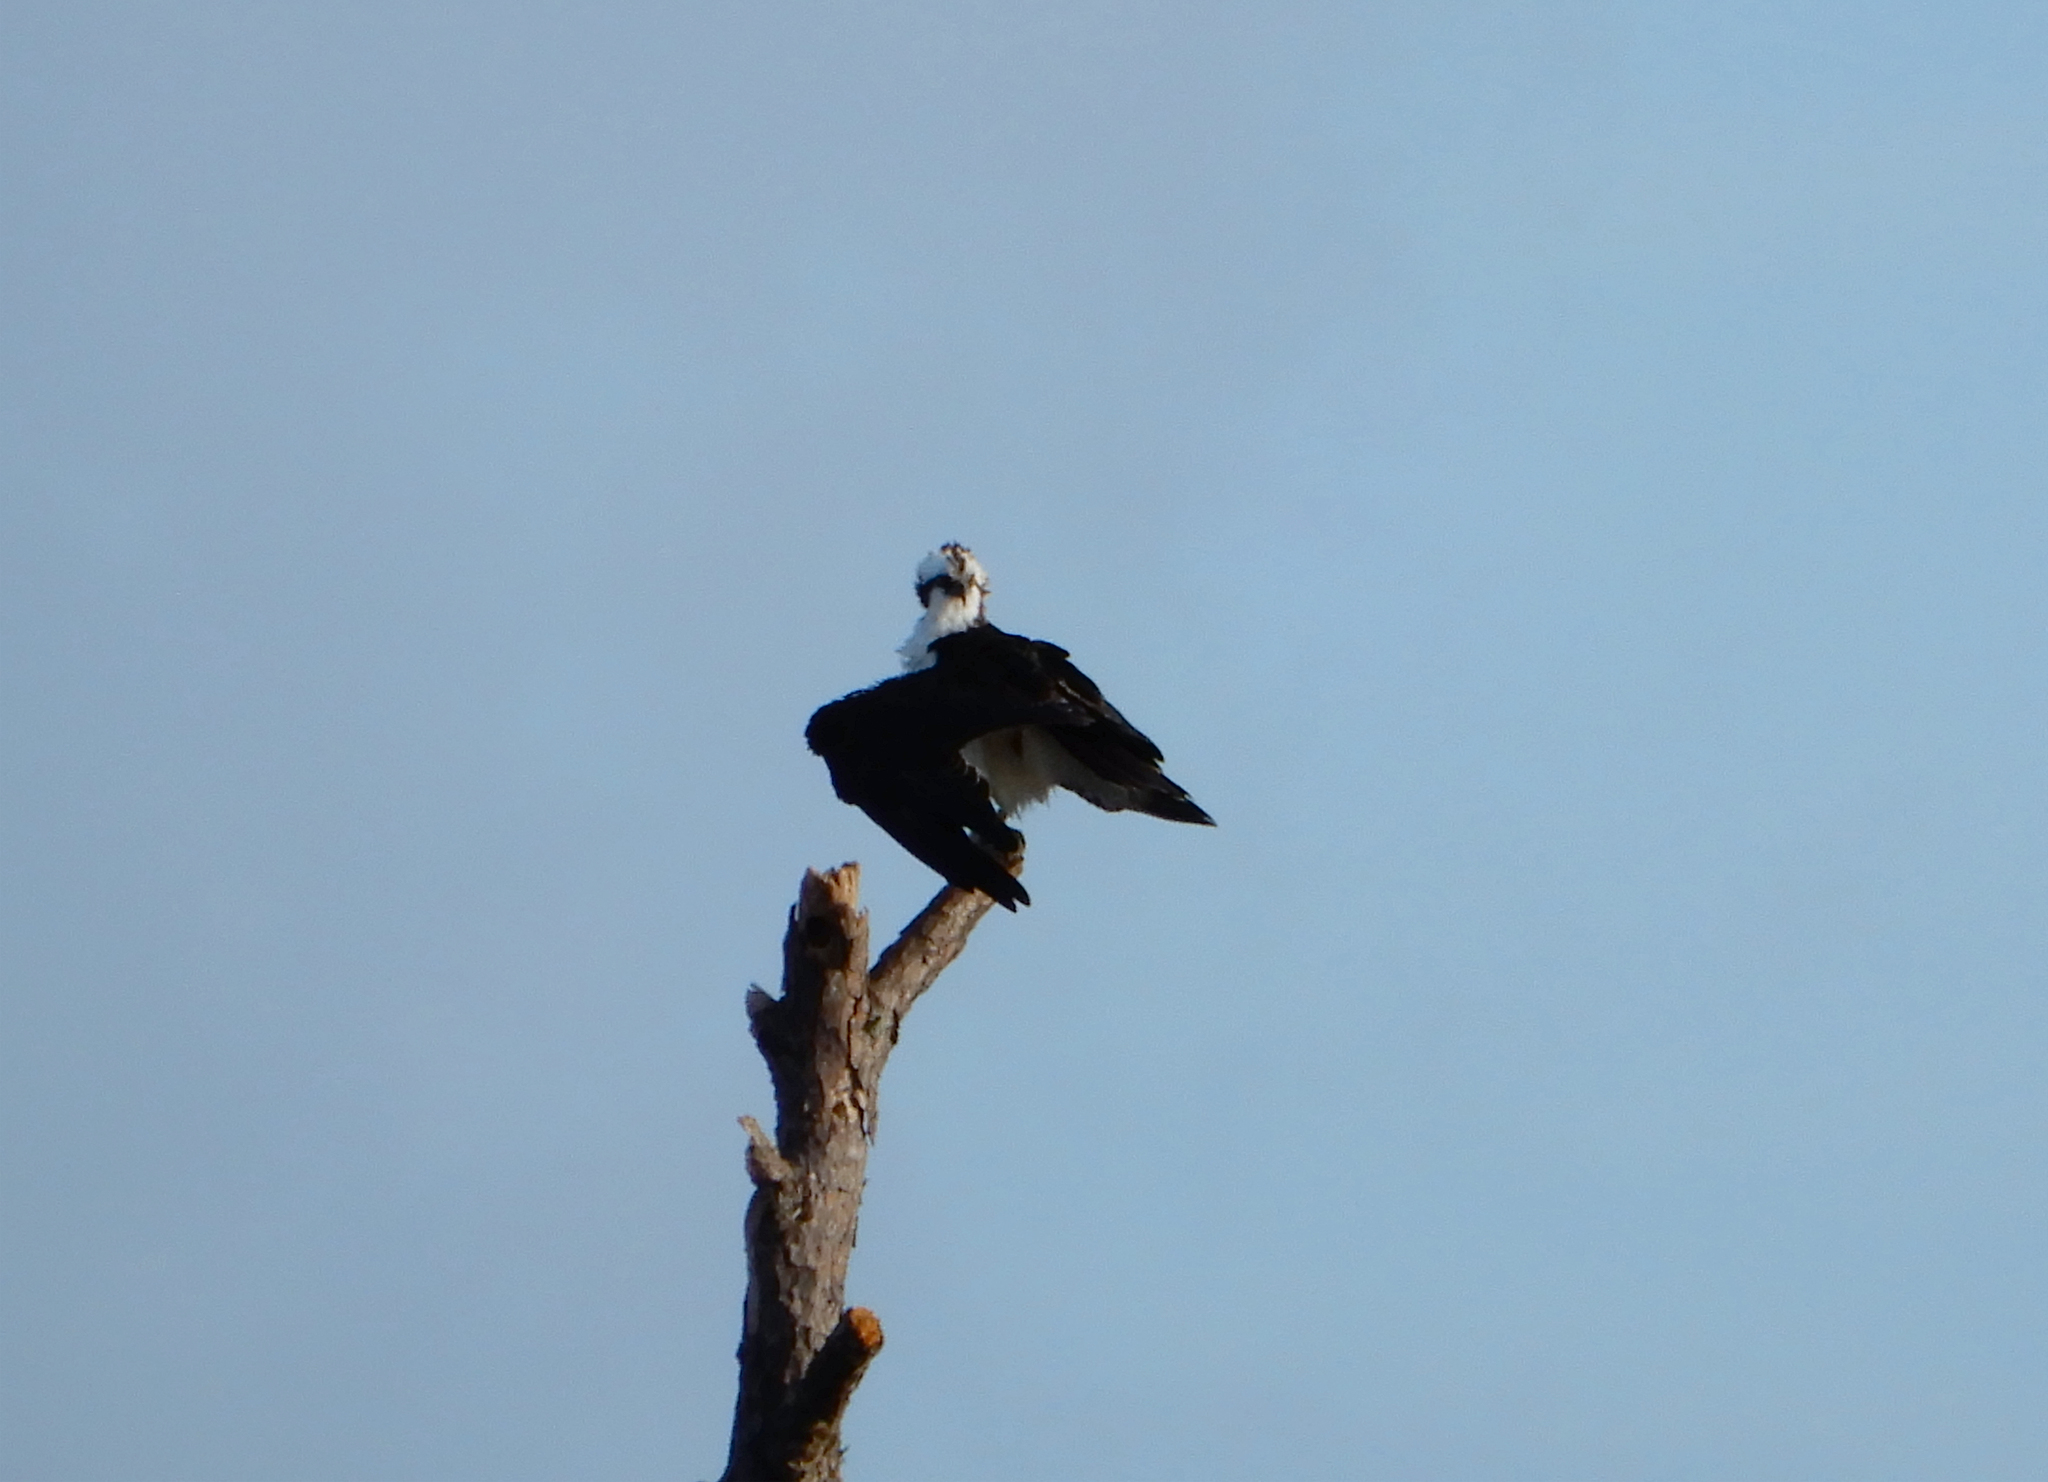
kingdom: Animalia
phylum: Chordata
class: Aves
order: Accipitriformes
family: Pandionidae
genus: Pandion
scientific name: Pandion haliaetus
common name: Osprey
